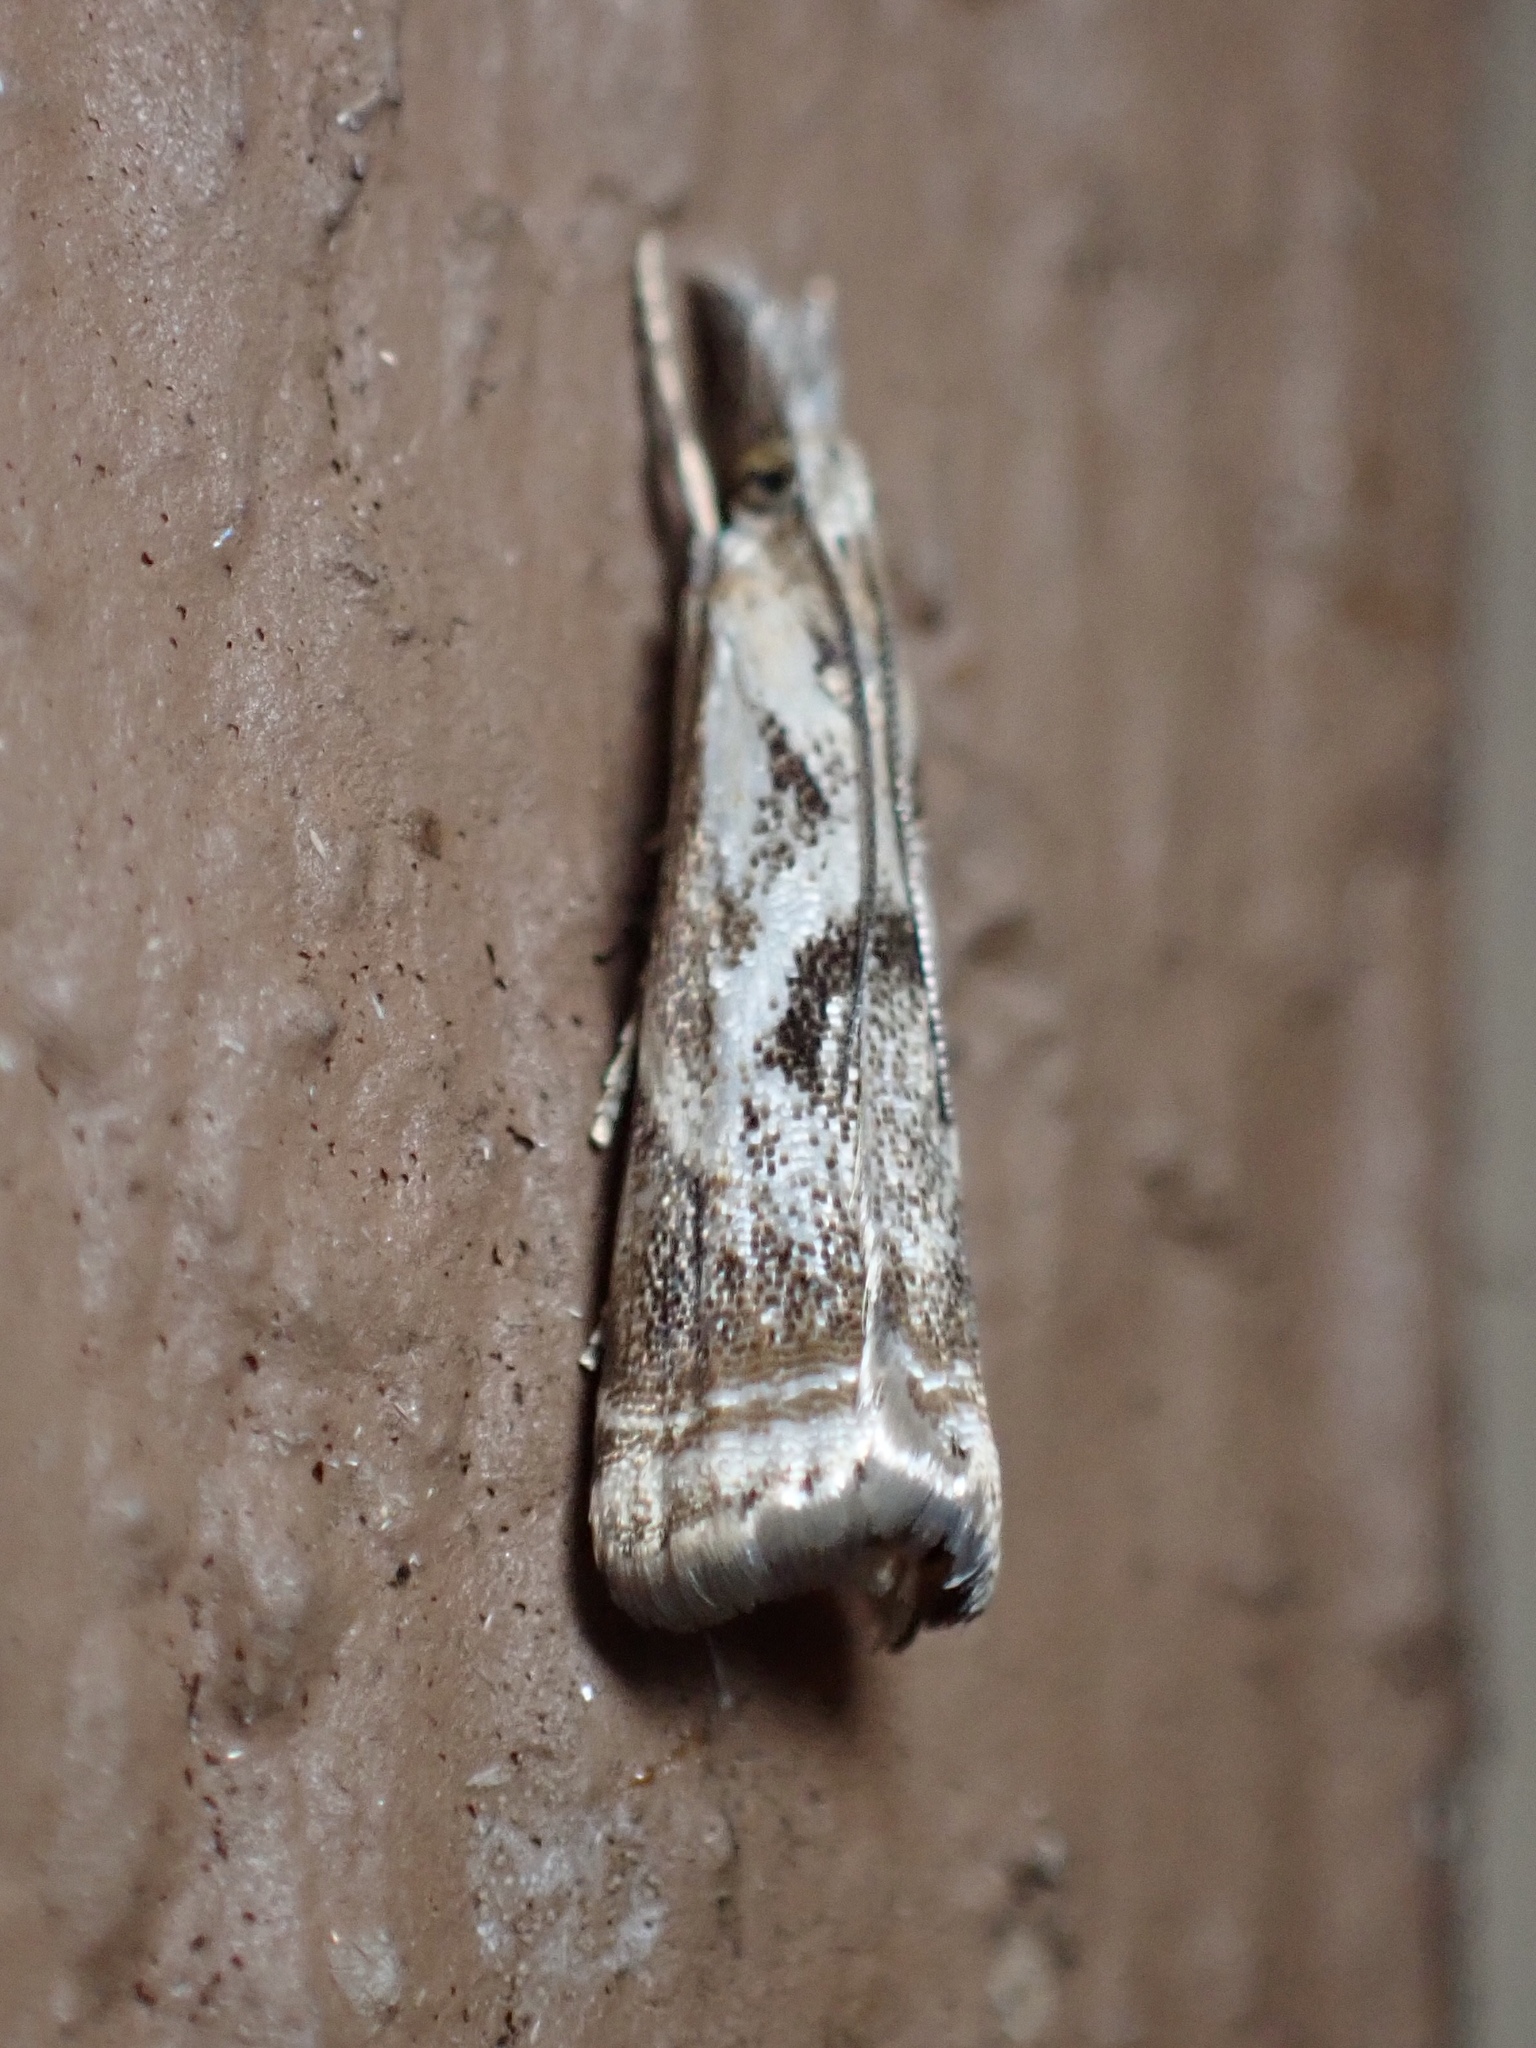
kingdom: Animalia
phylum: Arthropoda
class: Insecta
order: Lepidoptera
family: Crambidae
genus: Microcrambus
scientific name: Microcrambus elegans
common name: Elegant grass-veneer
